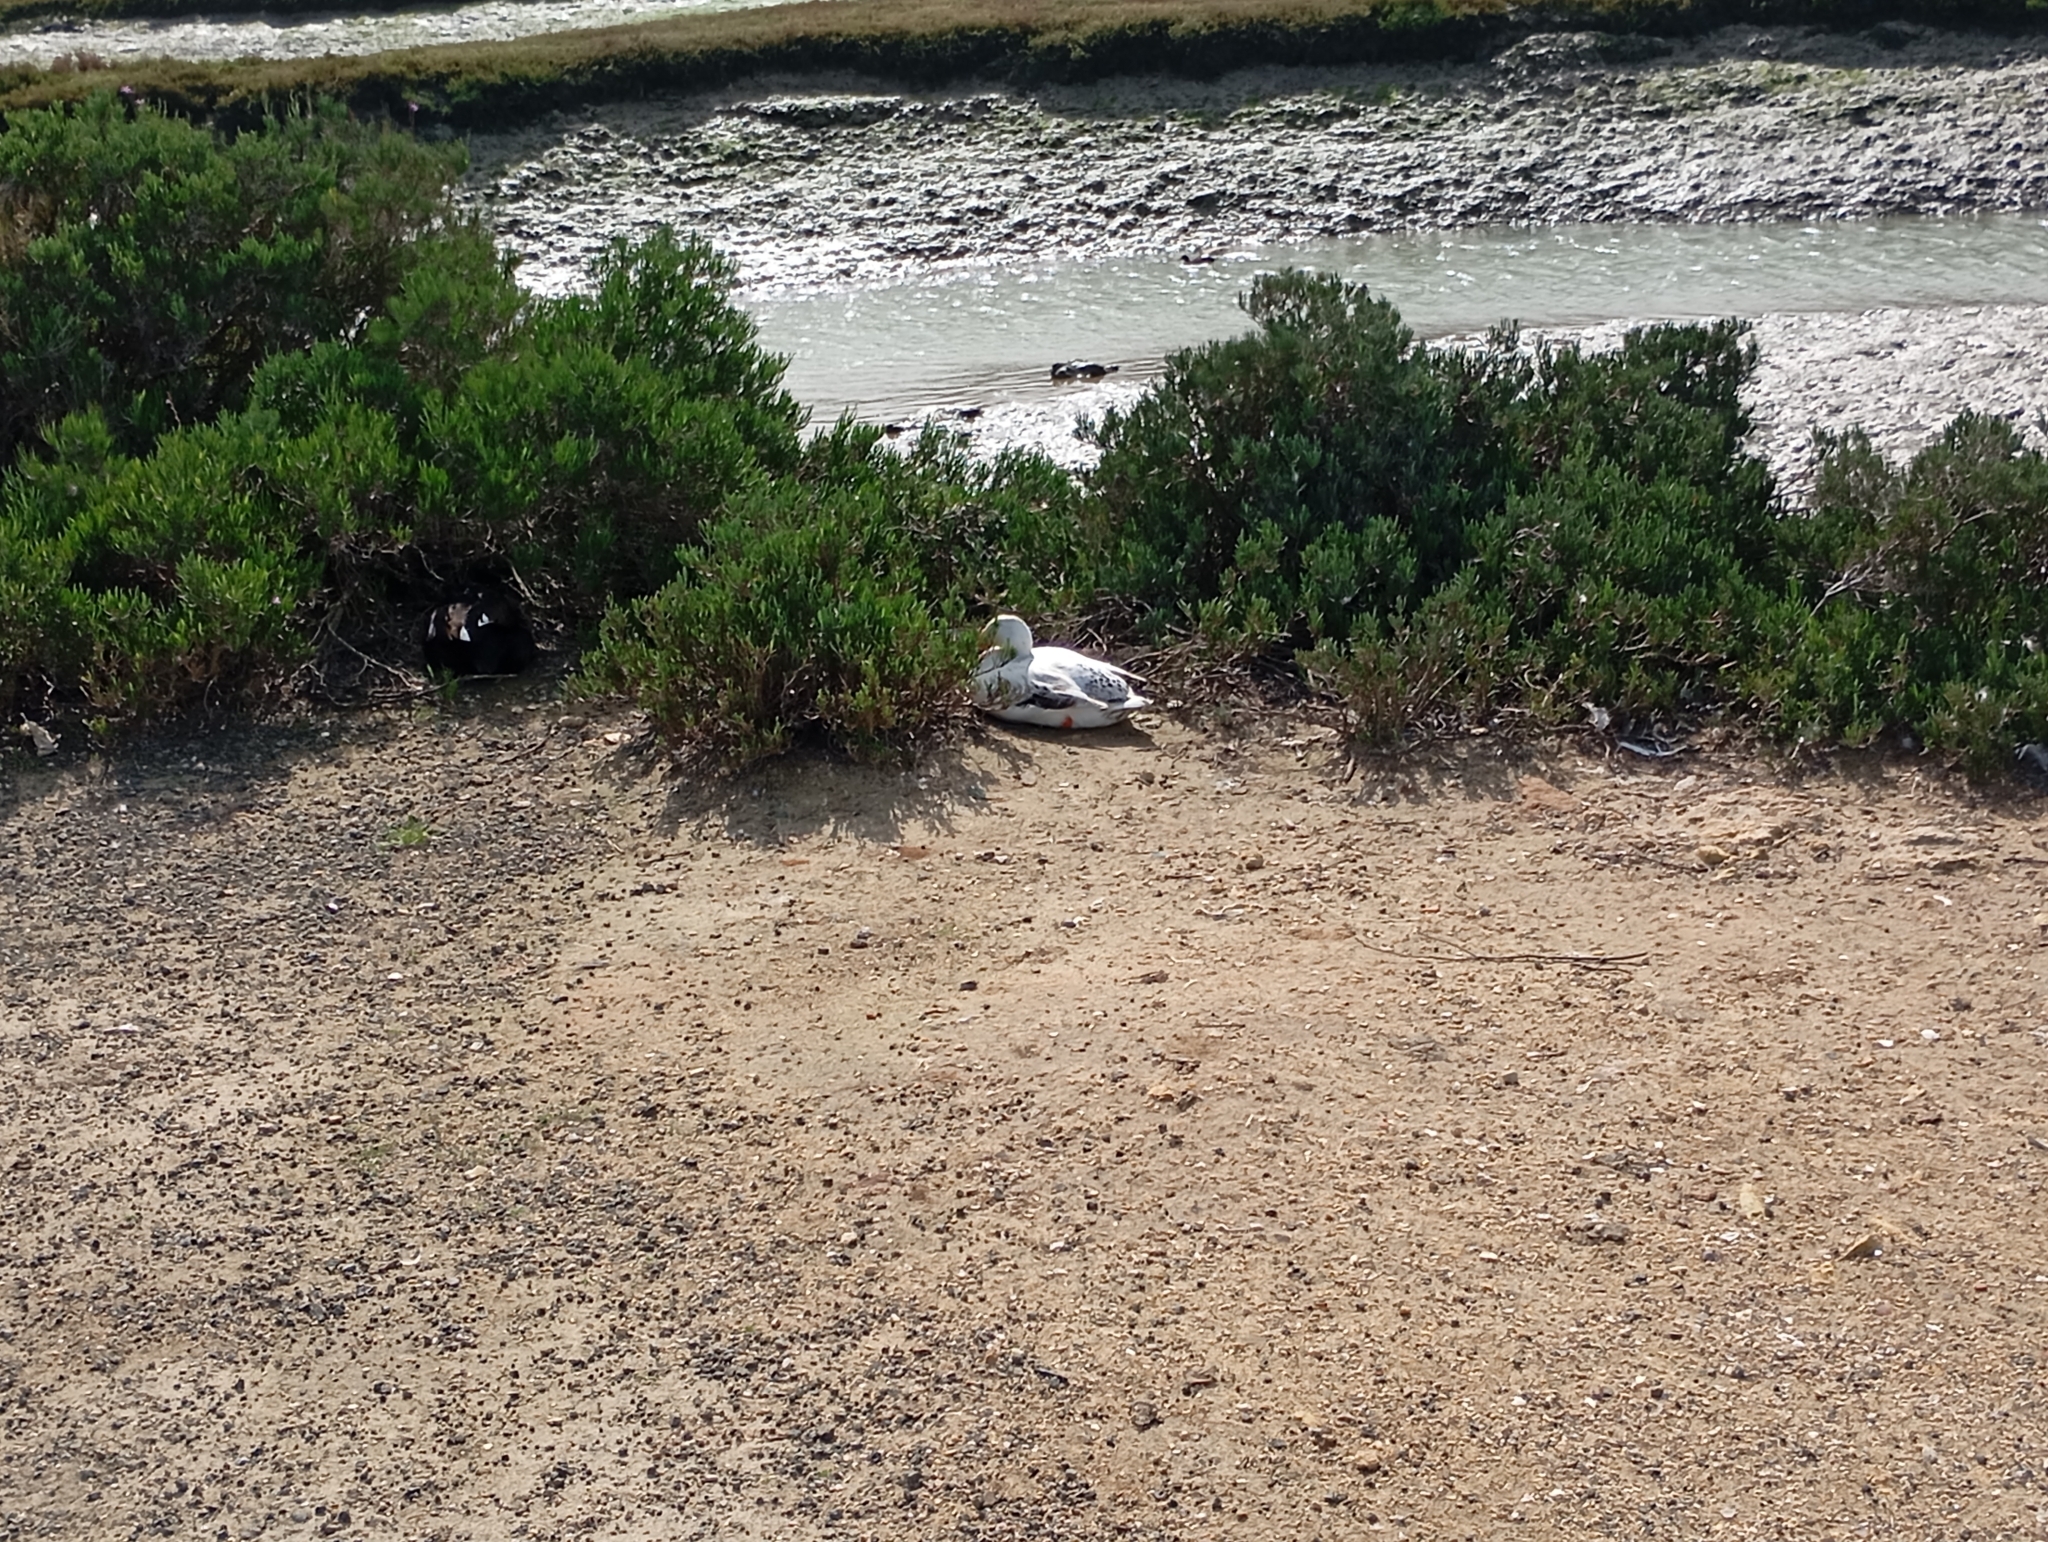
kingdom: Animalia
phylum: Chordata
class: Aves
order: Anseriformes
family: Anatidae
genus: Anas
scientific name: Anas platyrhynchos
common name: Mallard
